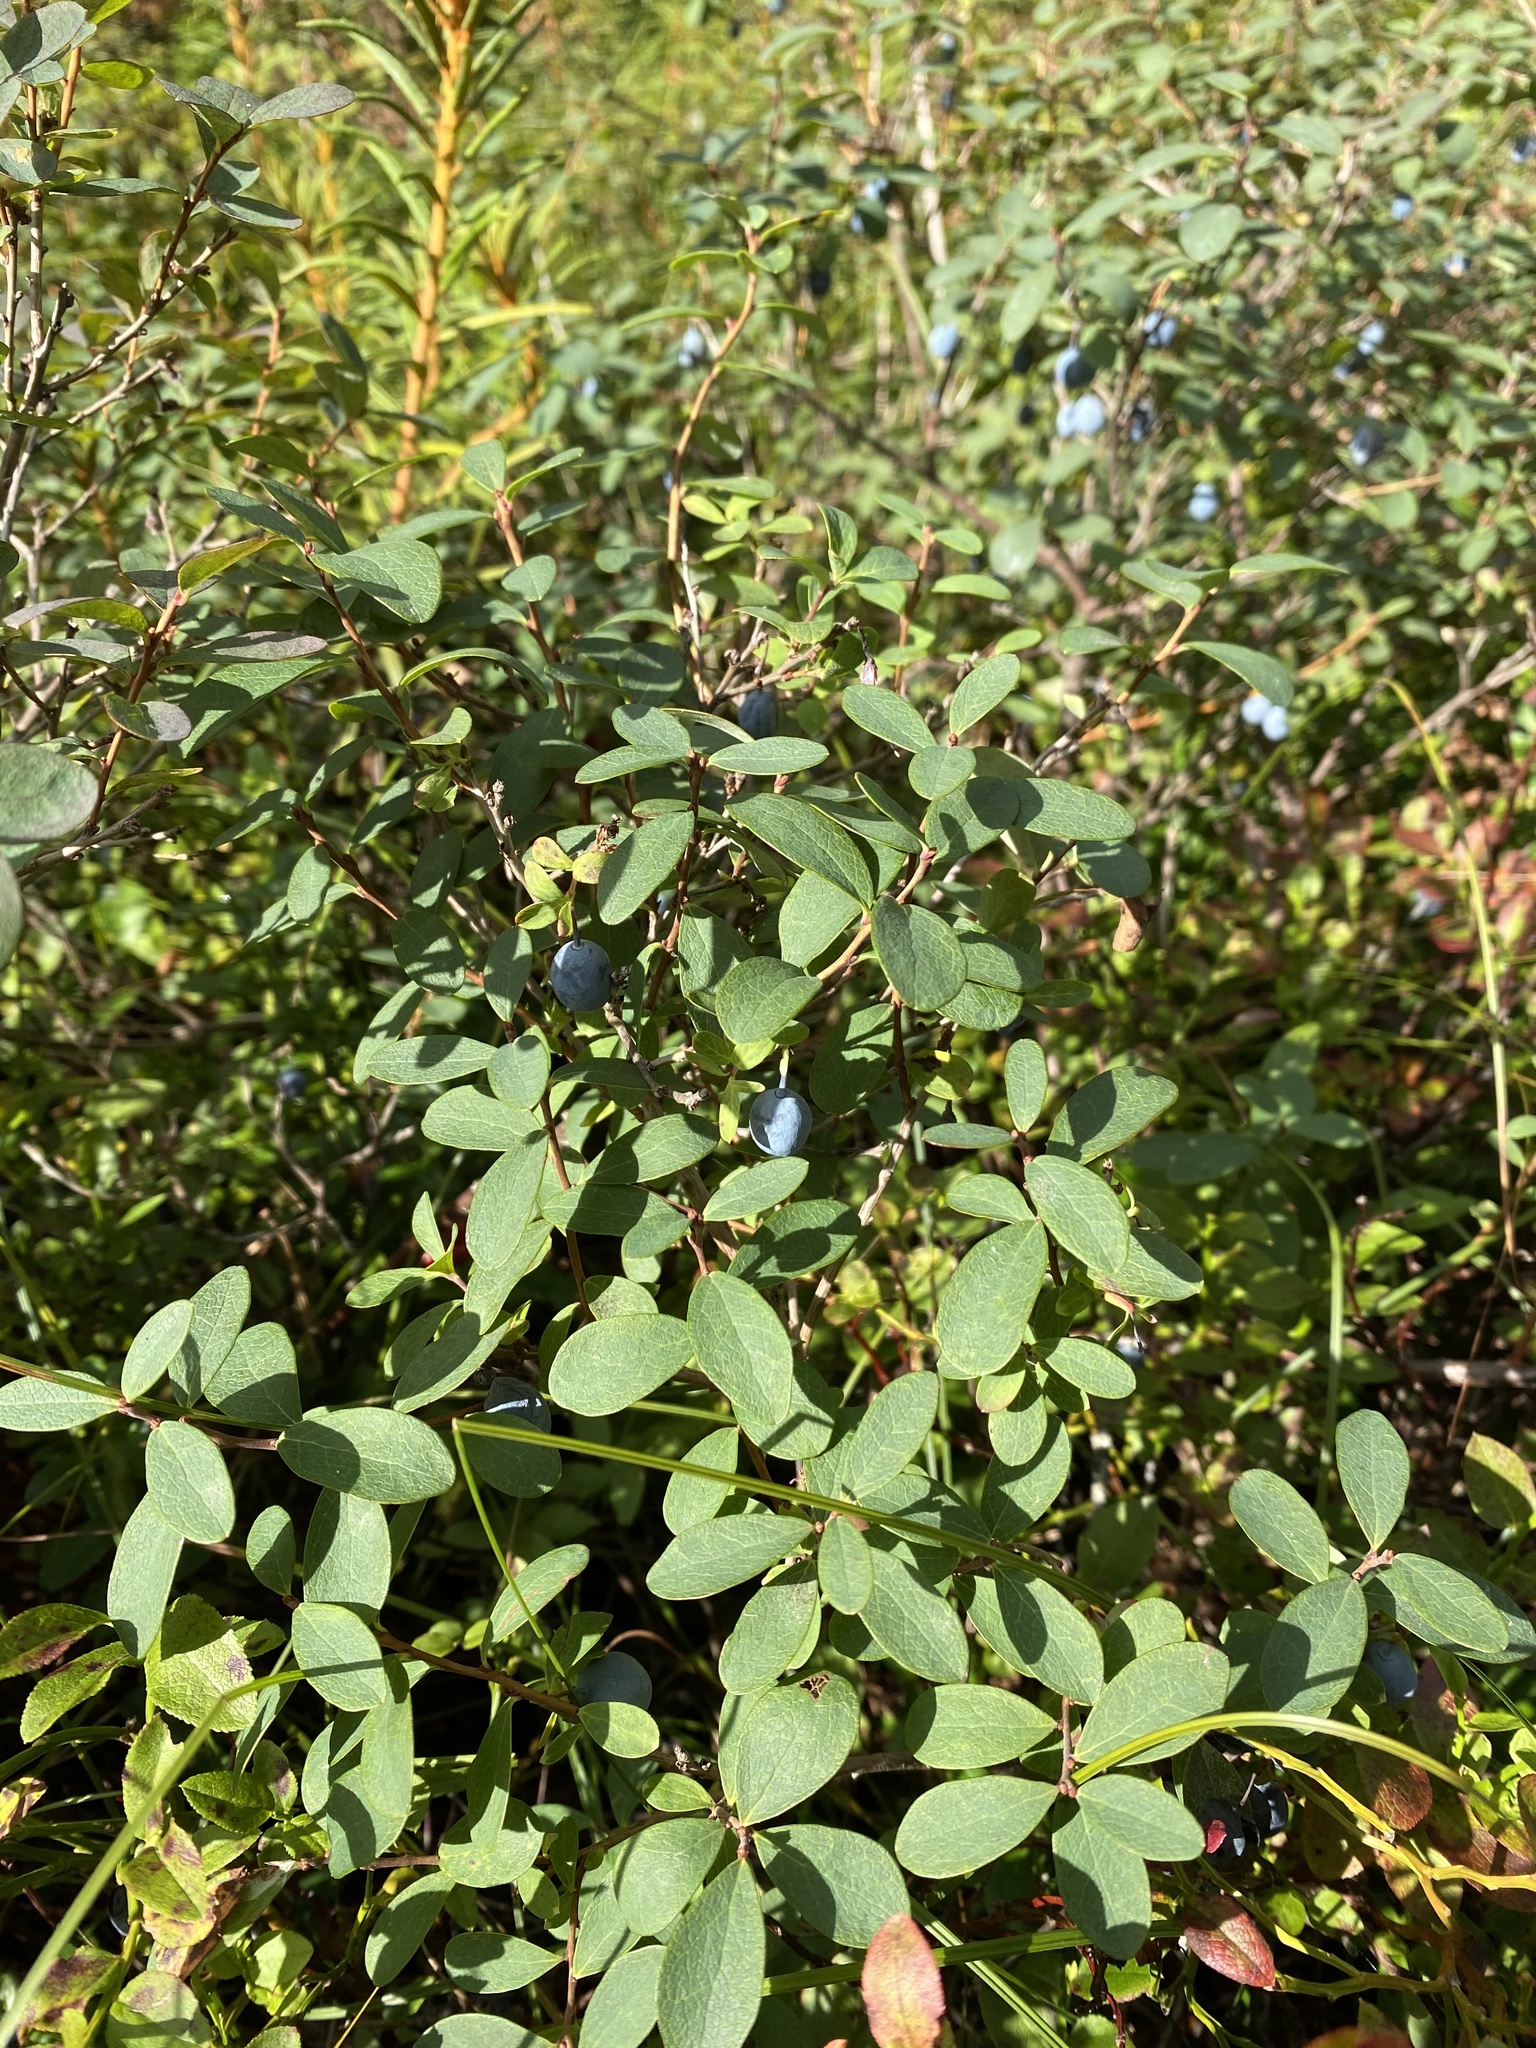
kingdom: Plantae
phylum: Tracheophyta
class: Magnoliopsida
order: Ericales
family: Ericaceae
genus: Vaccinium
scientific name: Vaccinium uliginosum
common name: Bog bilberry
